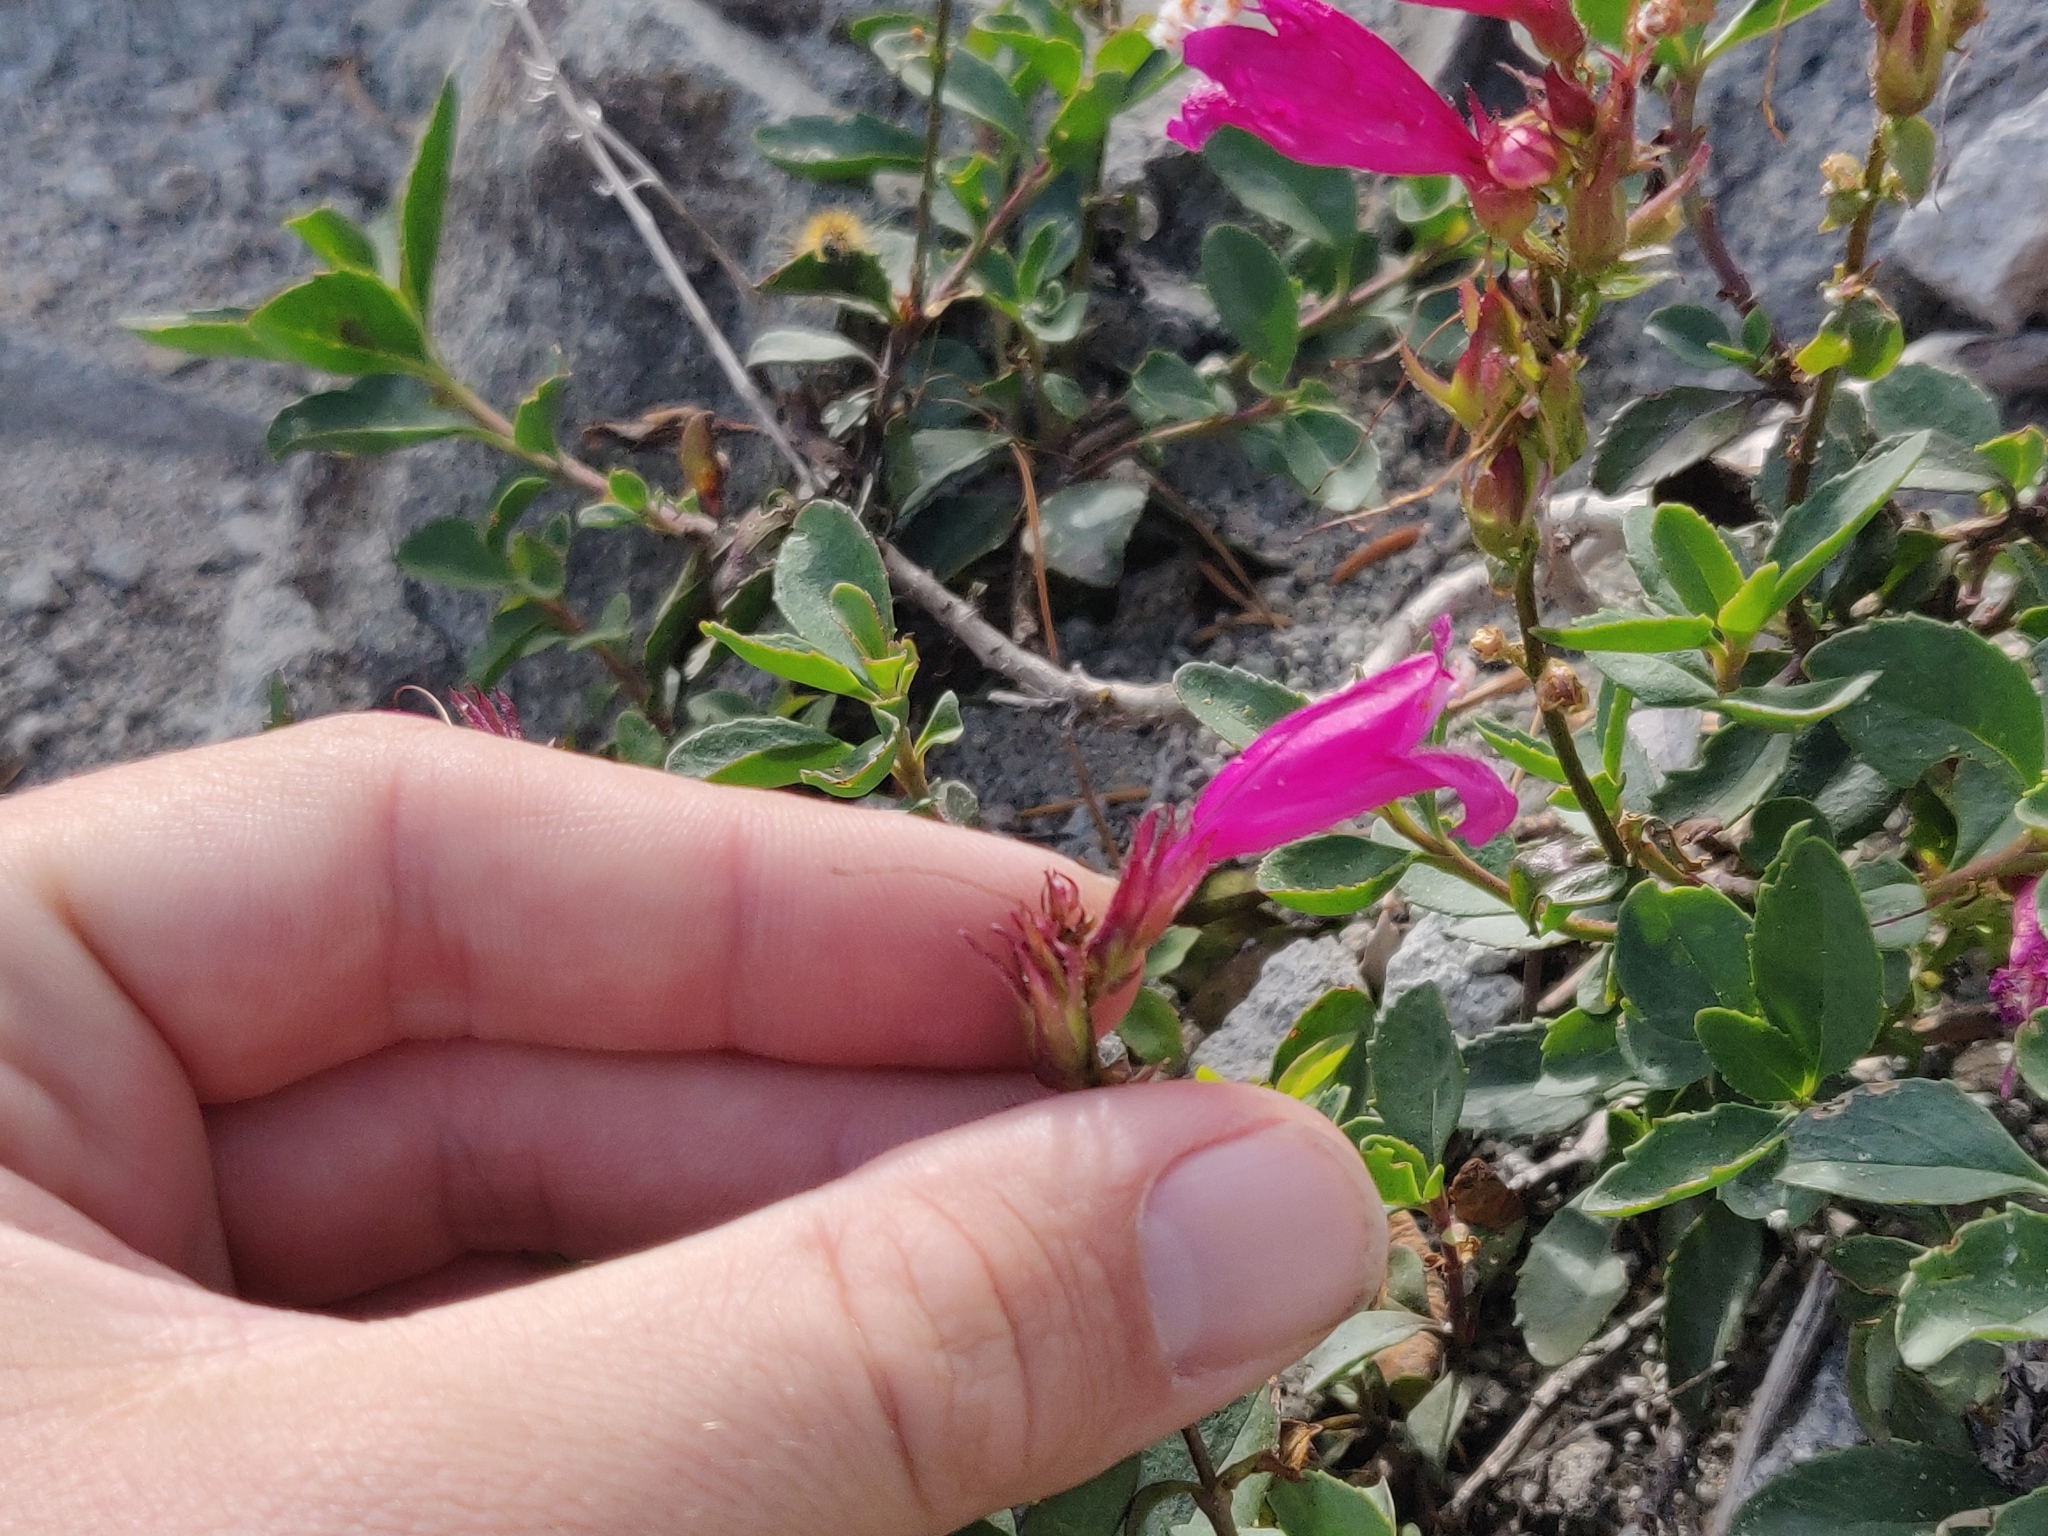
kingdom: Plantae
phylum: Tracheophyta
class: Magnoliopsida
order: Lamiales
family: Plantaginaceae
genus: Penstemon
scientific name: Penstemon newberryi
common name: Mountain-pride
